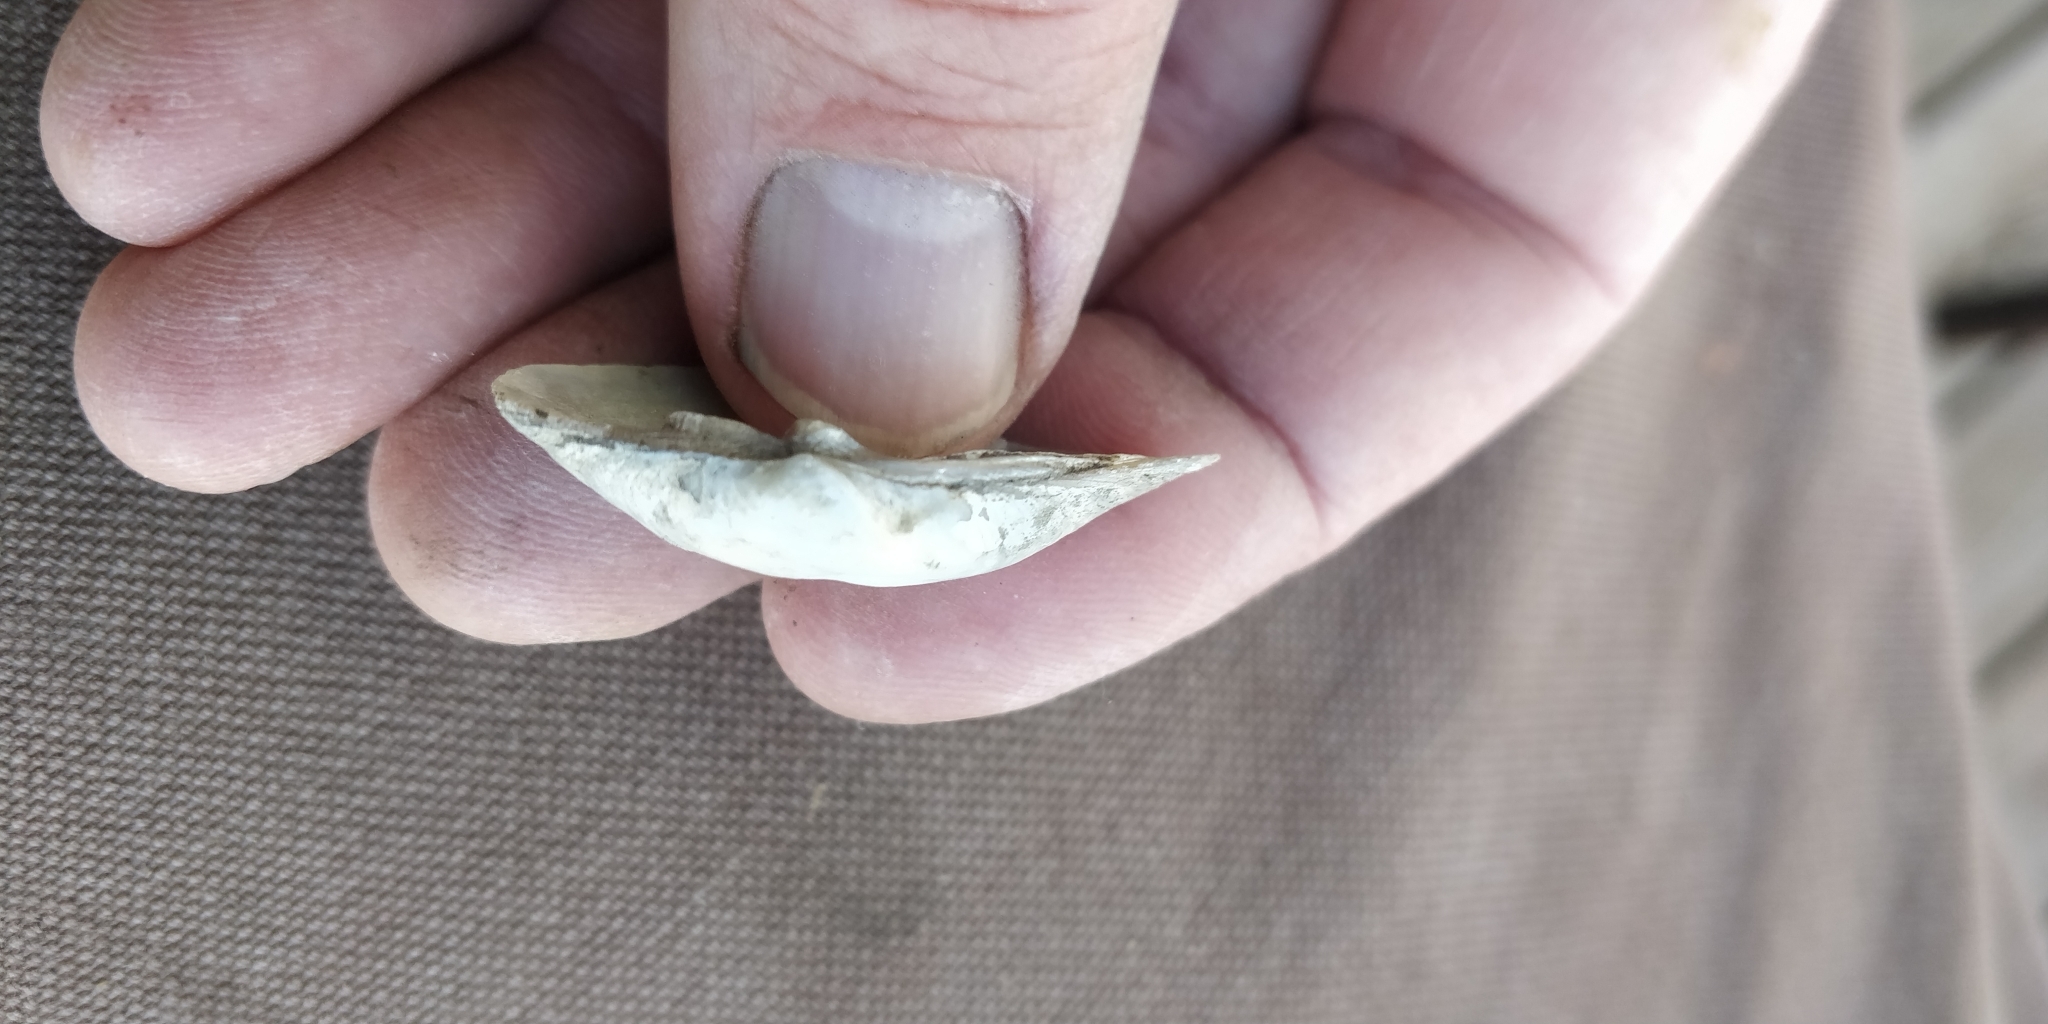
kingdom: Animalia
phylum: Mollusca
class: Bivalvia
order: Unionida
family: Unionidae
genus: Truncilla
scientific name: Truncilla donaciformis
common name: Fawnsfoot
